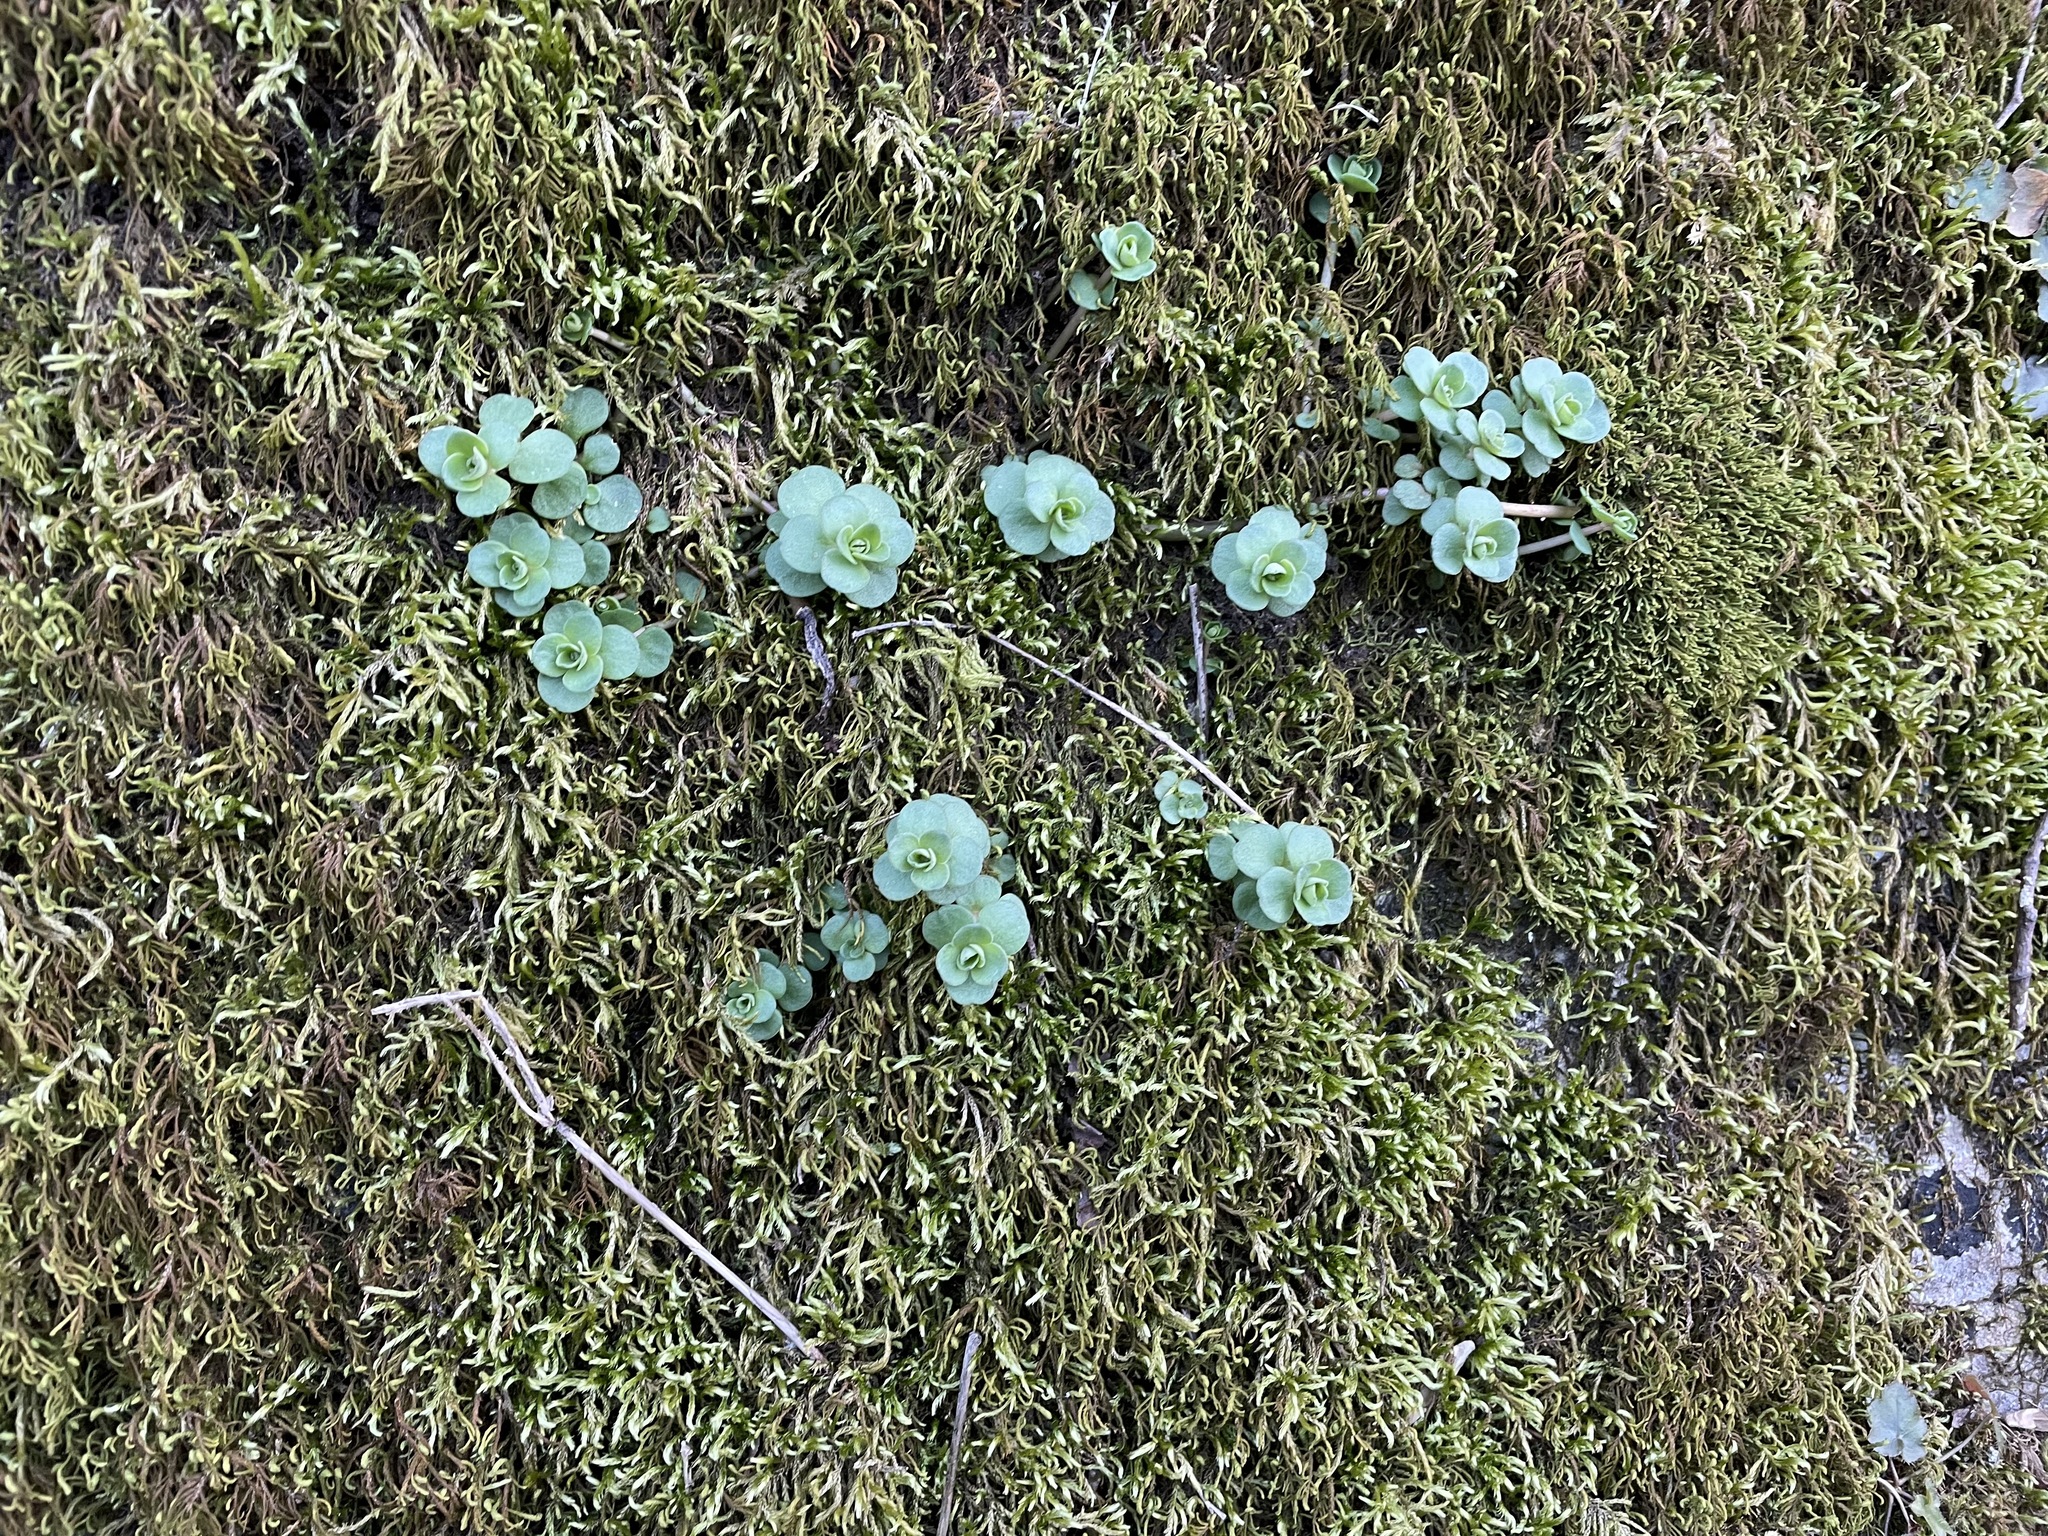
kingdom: Plantae
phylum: Tracheophyta
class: Magnoliopsida
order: Saxifragales
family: Crassulaceae
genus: Sedum
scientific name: Sedum ternatum
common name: Wild stonecrop
